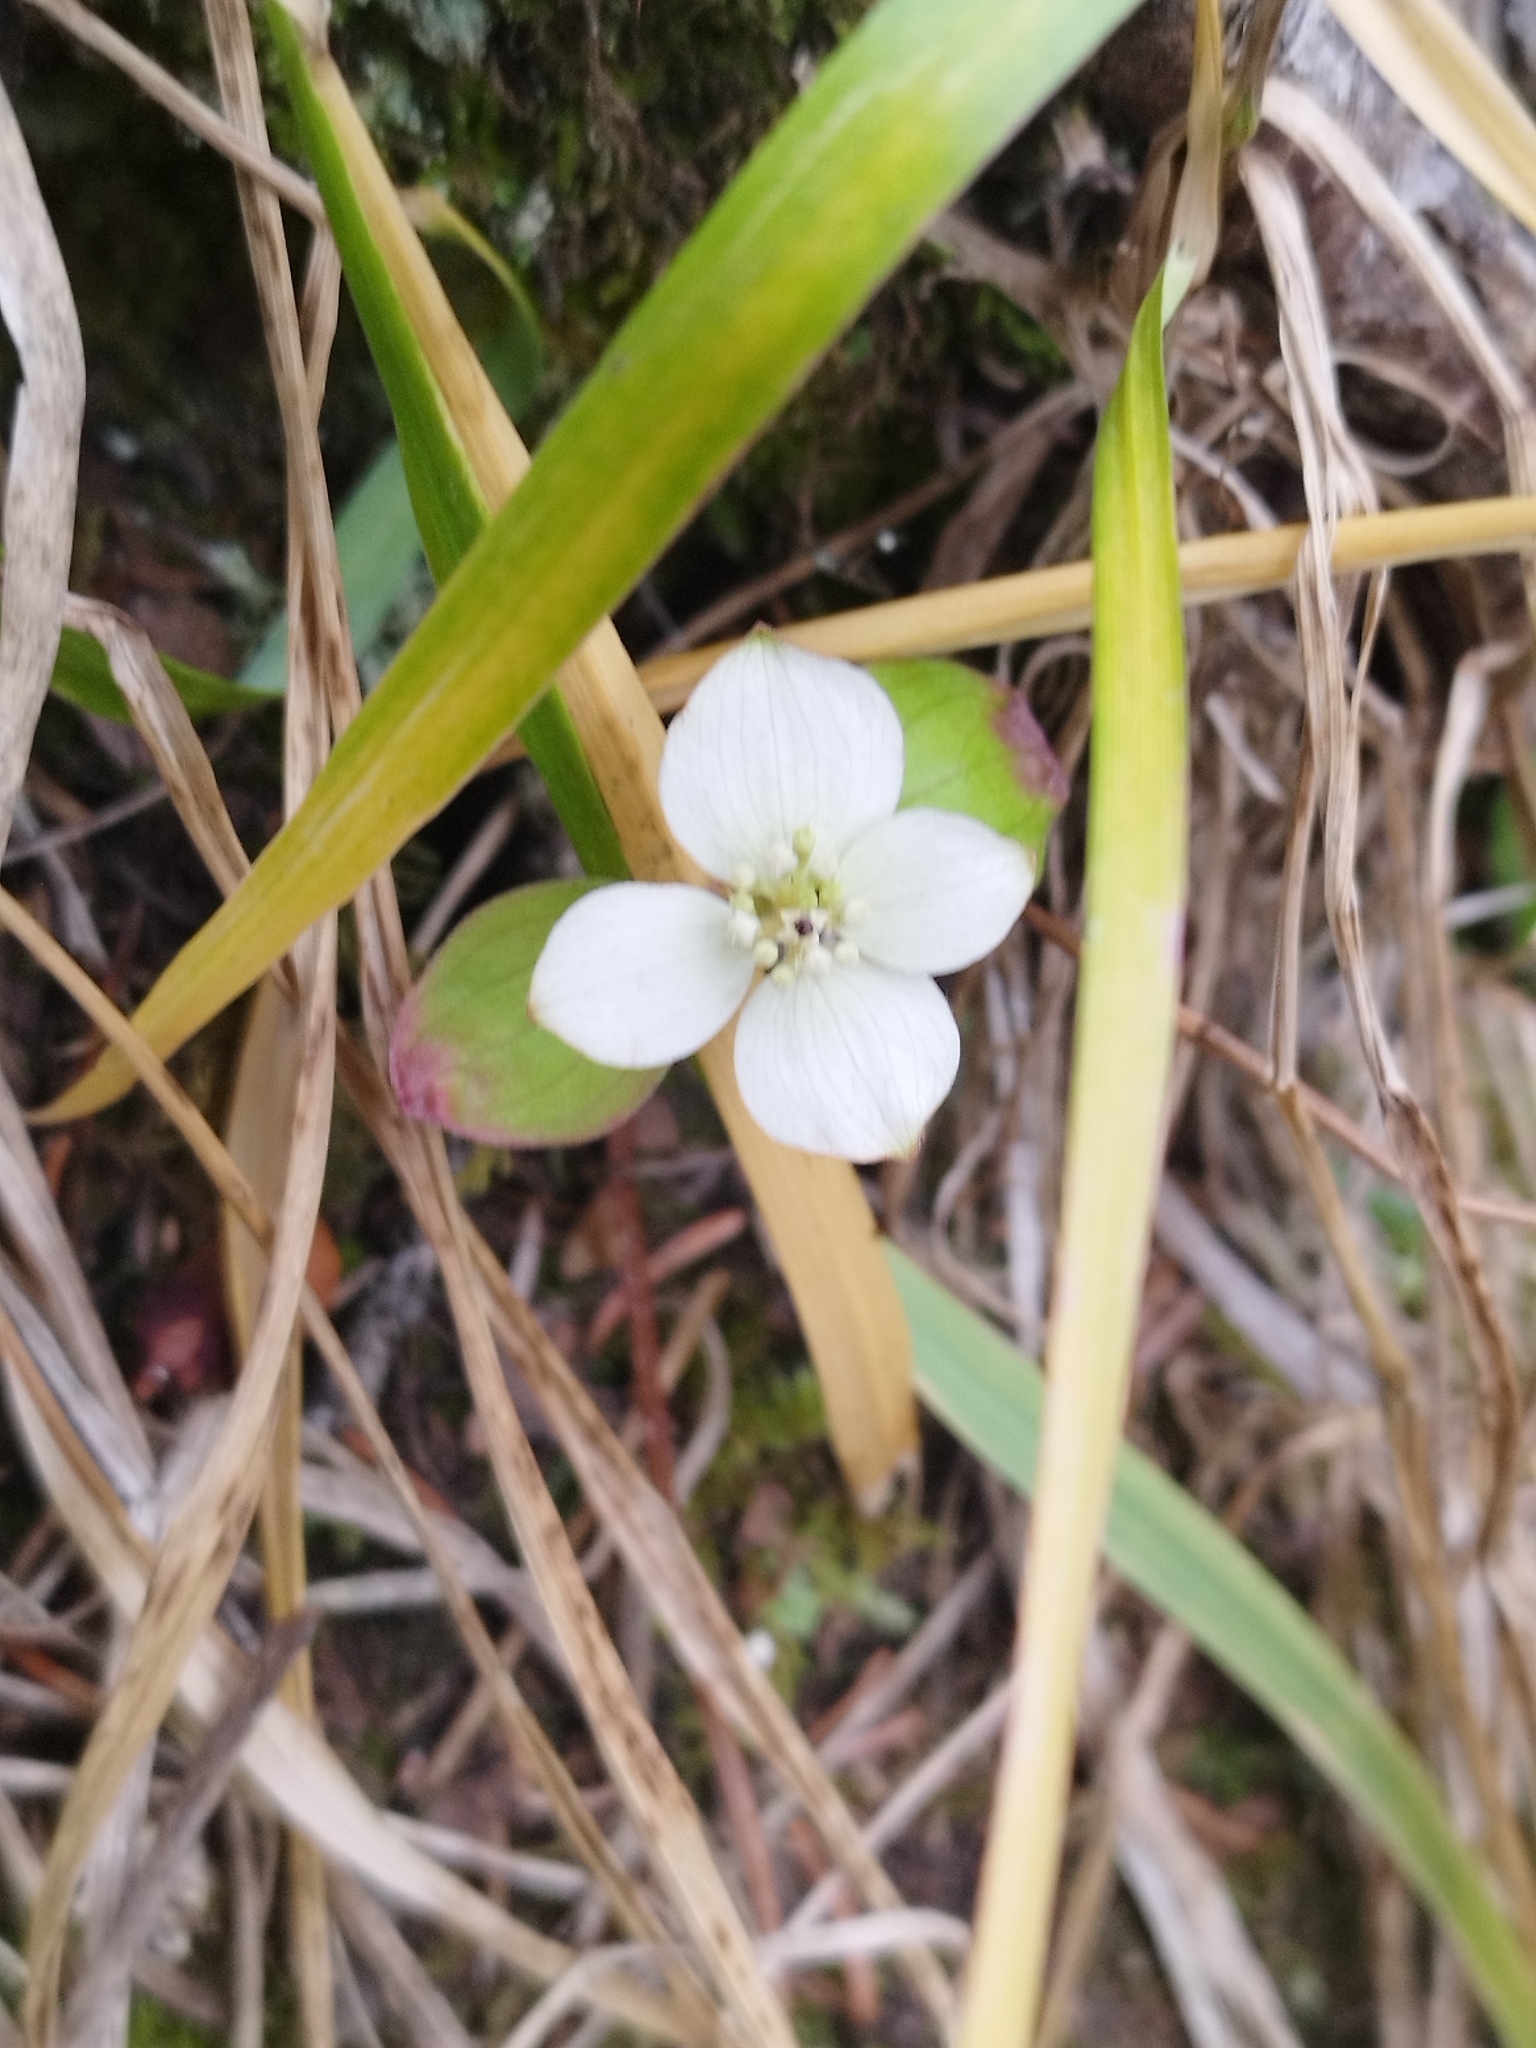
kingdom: Plantae
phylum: Tracheophyta
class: Magnoliopsida
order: Cornales
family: Cornaceae
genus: Cornus
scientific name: Cornus canadensis
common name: Creeping dogwood
